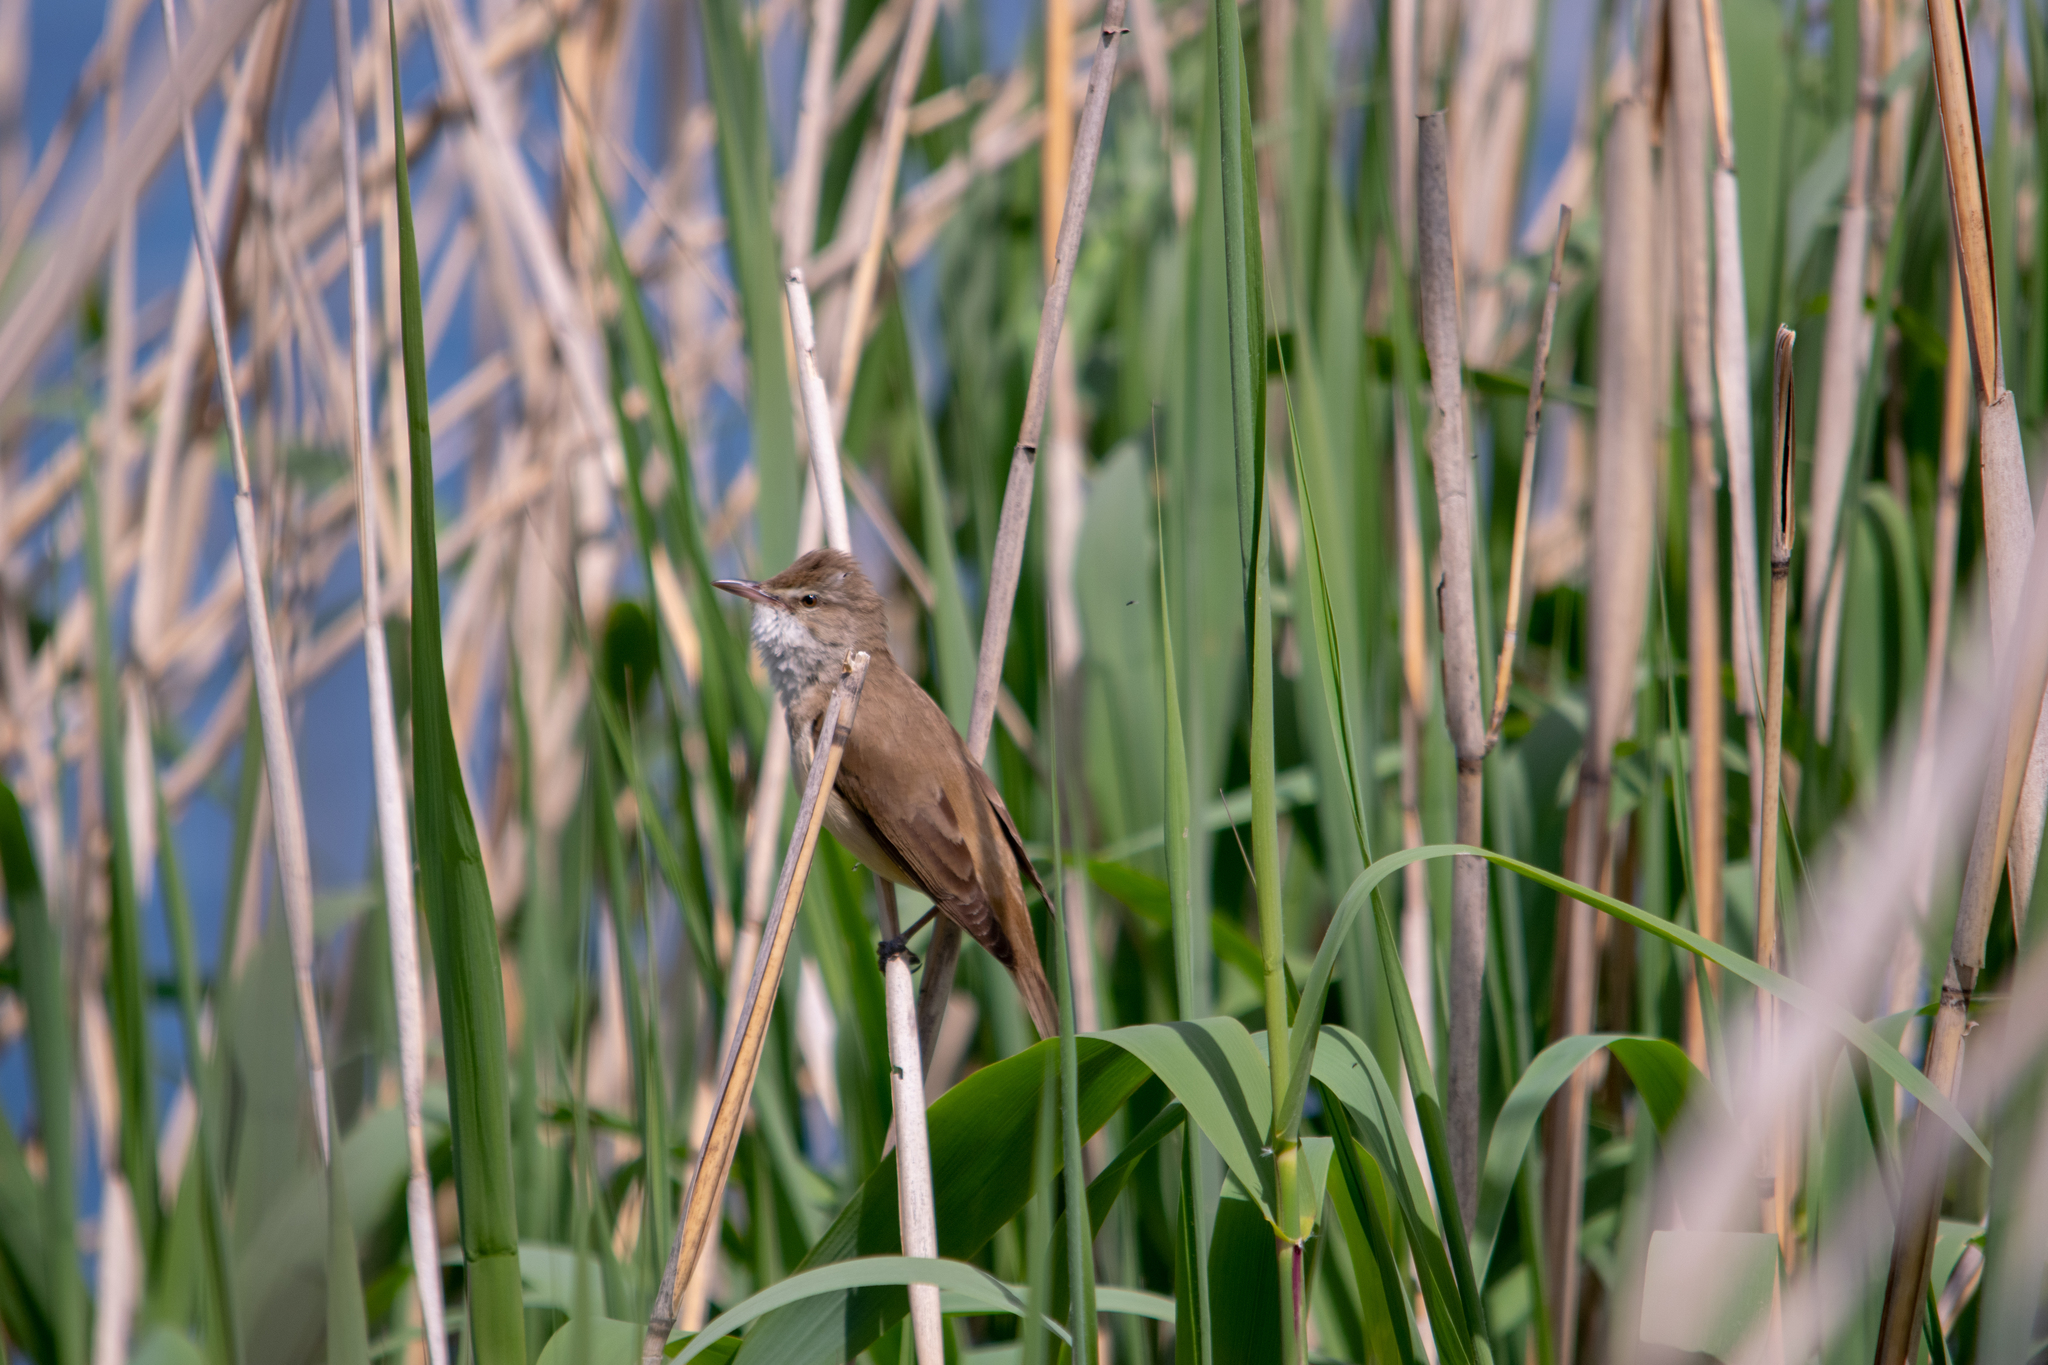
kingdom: Animalia
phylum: Chordata
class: Aves
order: Passeriformes
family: Acrocephalidae
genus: Acrocephalus
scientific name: Acrocephalus arundinaceus
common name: Great reed warbler
